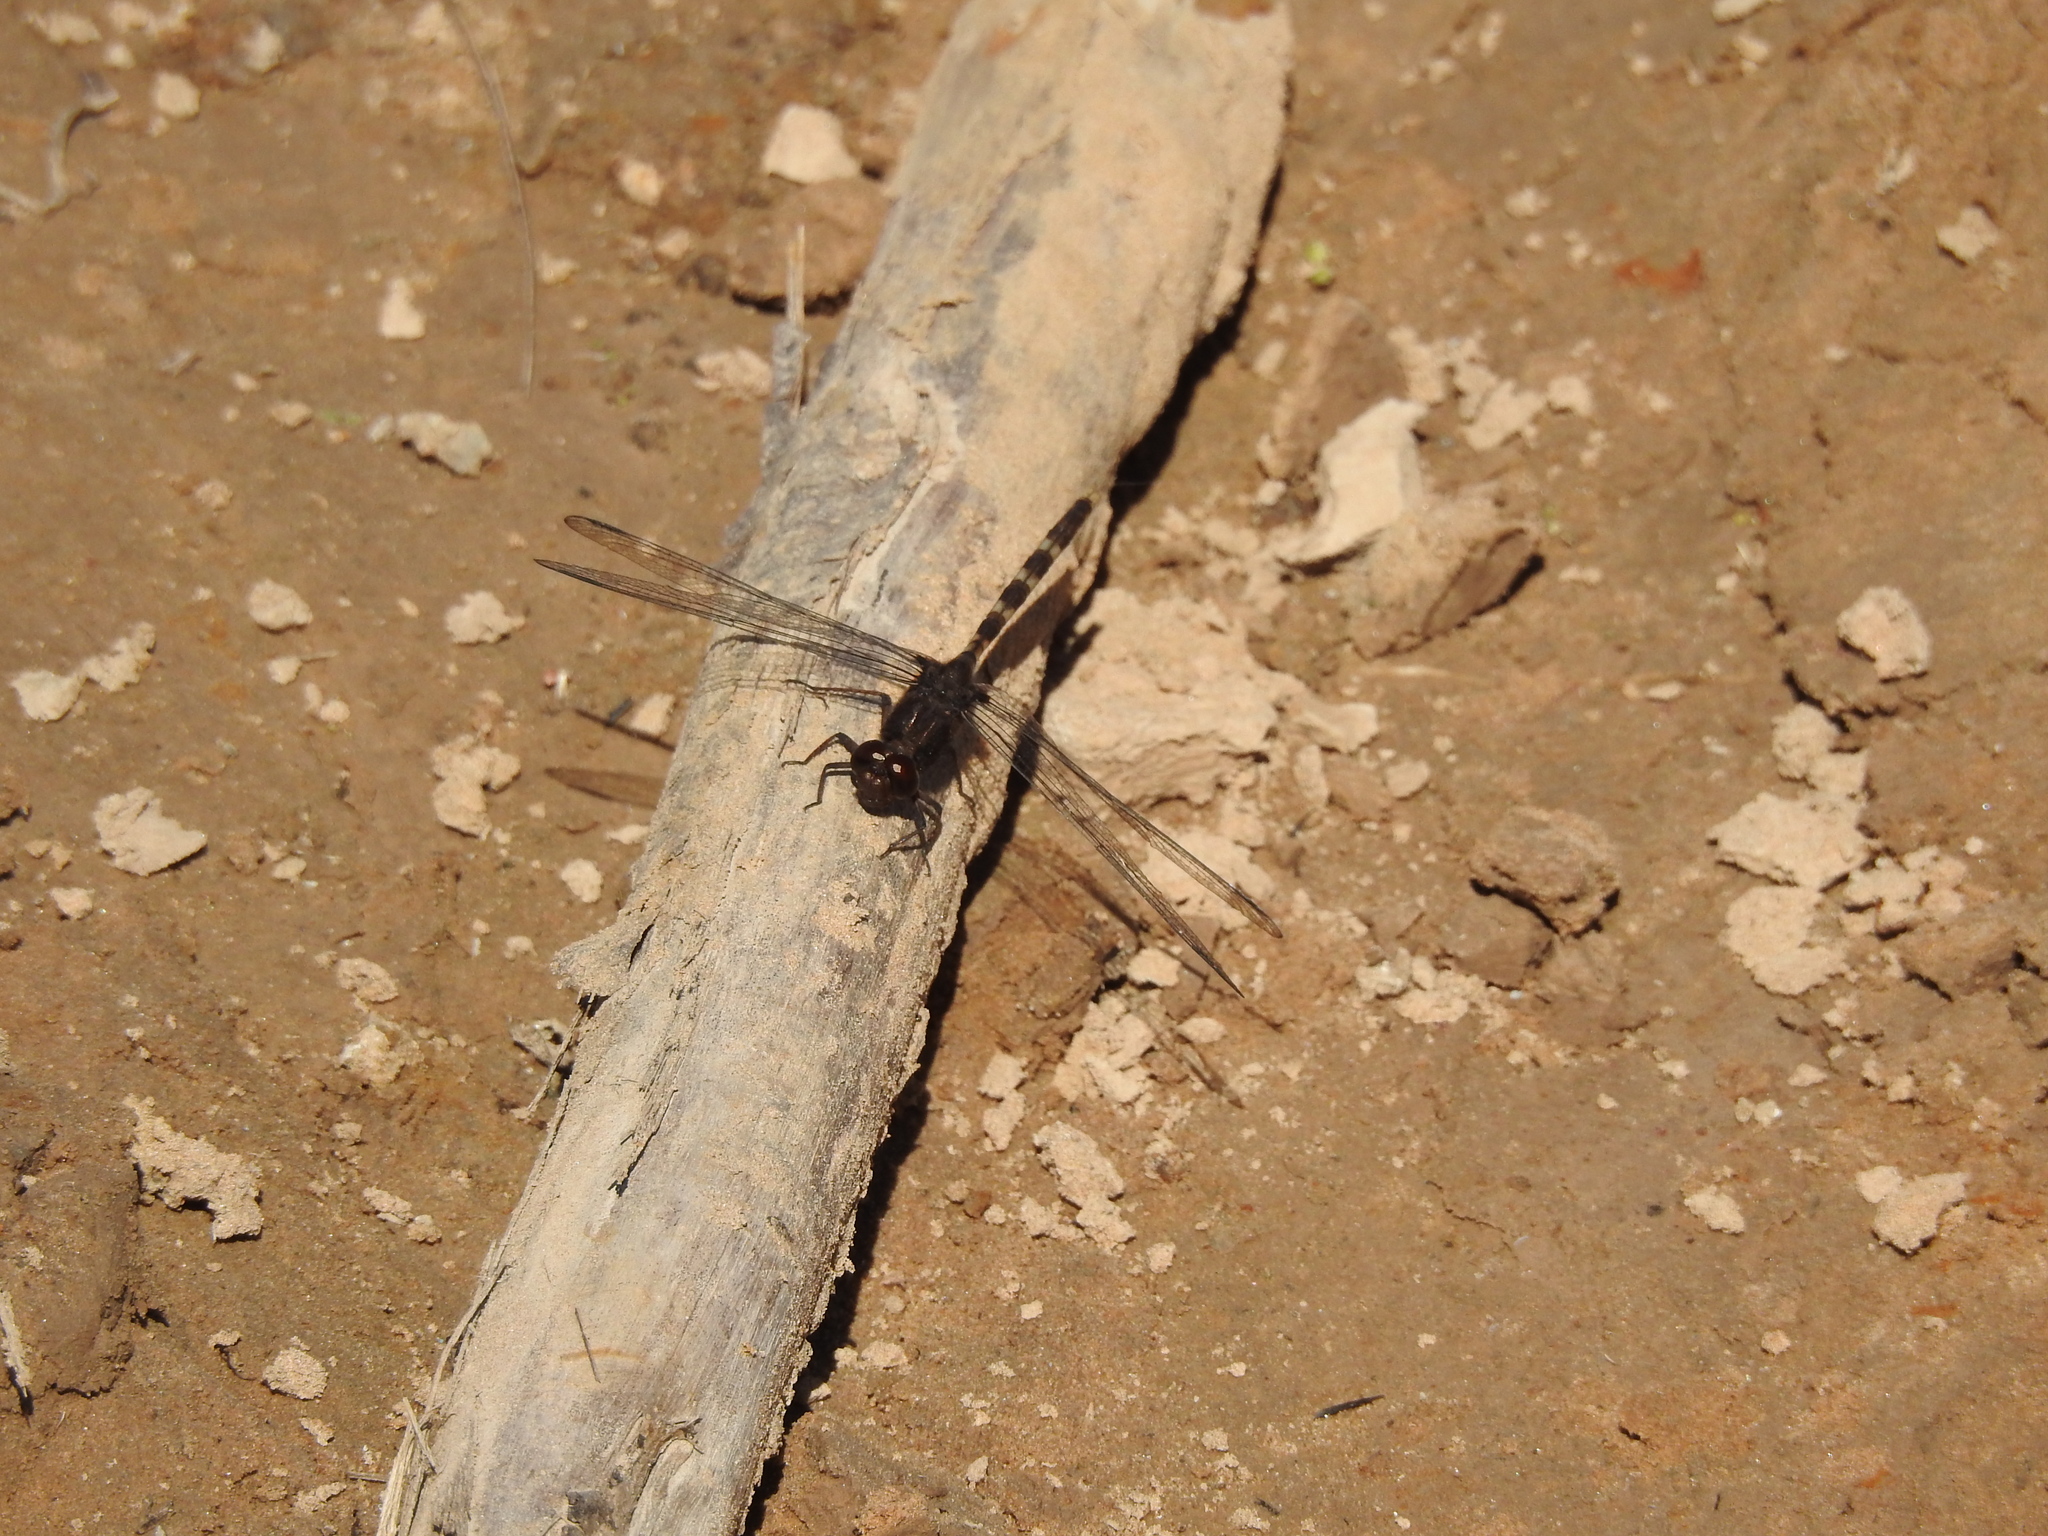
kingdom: Animalia
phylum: Arthropoda
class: Insecta
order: Odonata
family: Libellulidae
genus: Erythemis
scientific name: Erythemis plebeja
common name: Pin-tailed pondhawk
